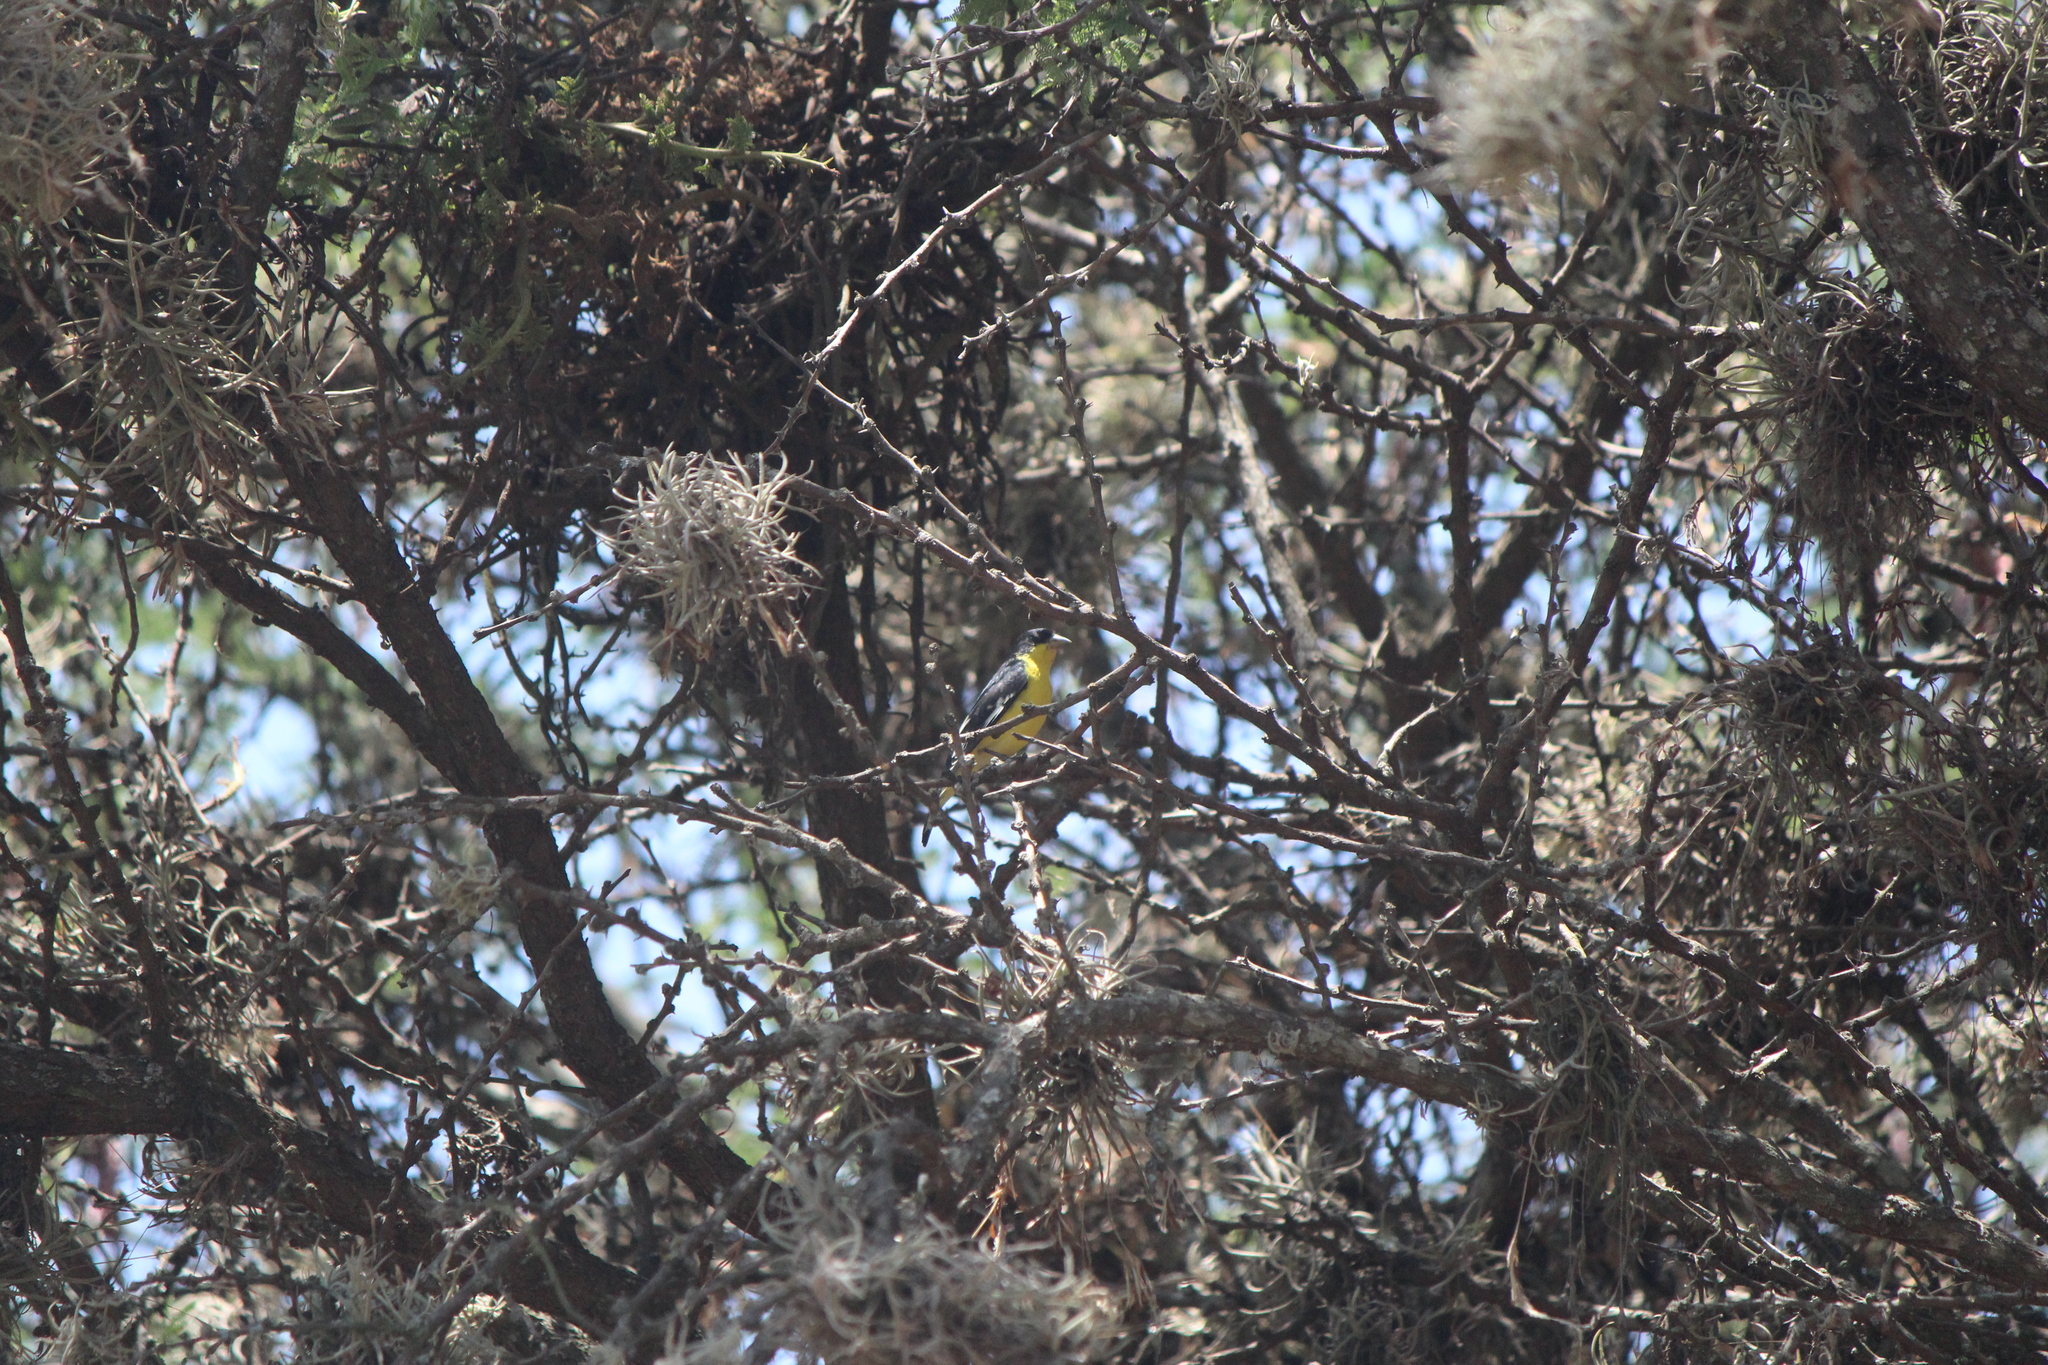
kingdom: Animalia
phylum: Chordata
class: Aves
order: Passeriformes
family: Fringillidae
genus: Spinus
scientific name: Spinus psaltria
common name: Lesser goldfinch
